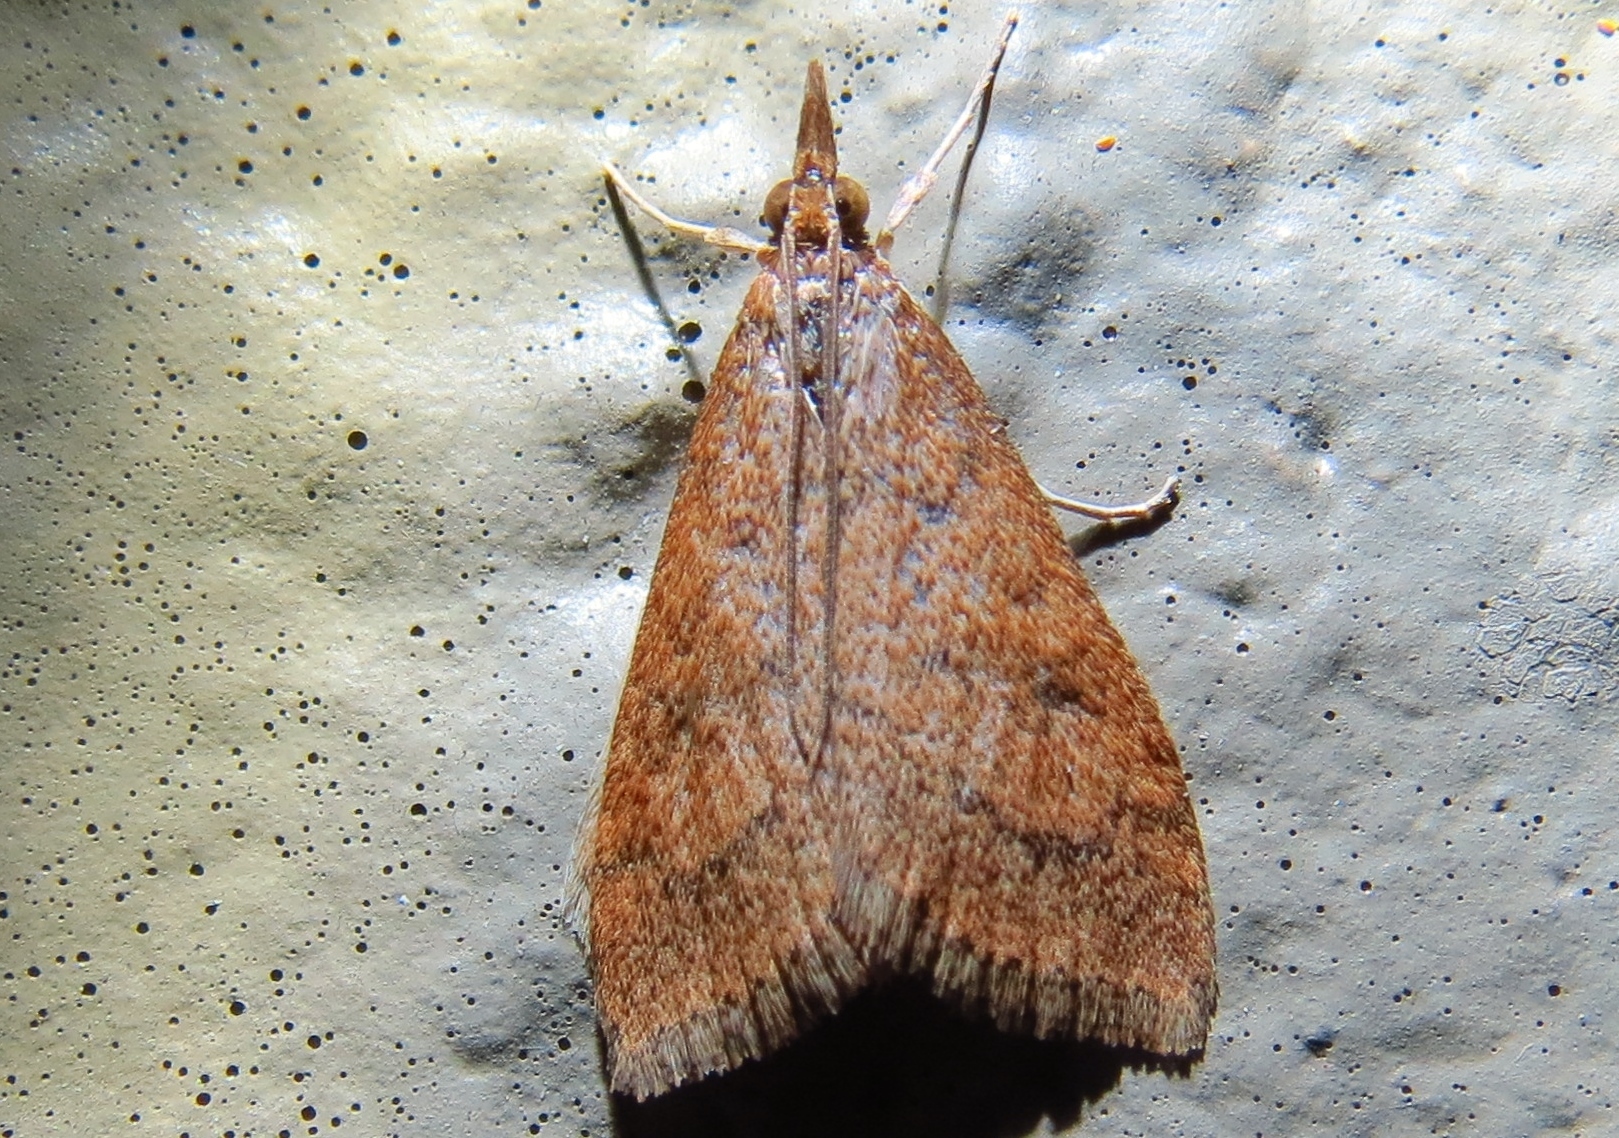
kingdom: Animalia
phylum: Arthropoda
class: Insecta
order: Lepidoptera
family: Crambidae
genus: Udea
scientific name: Udea rubigalis
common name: Celery leaftier moth
